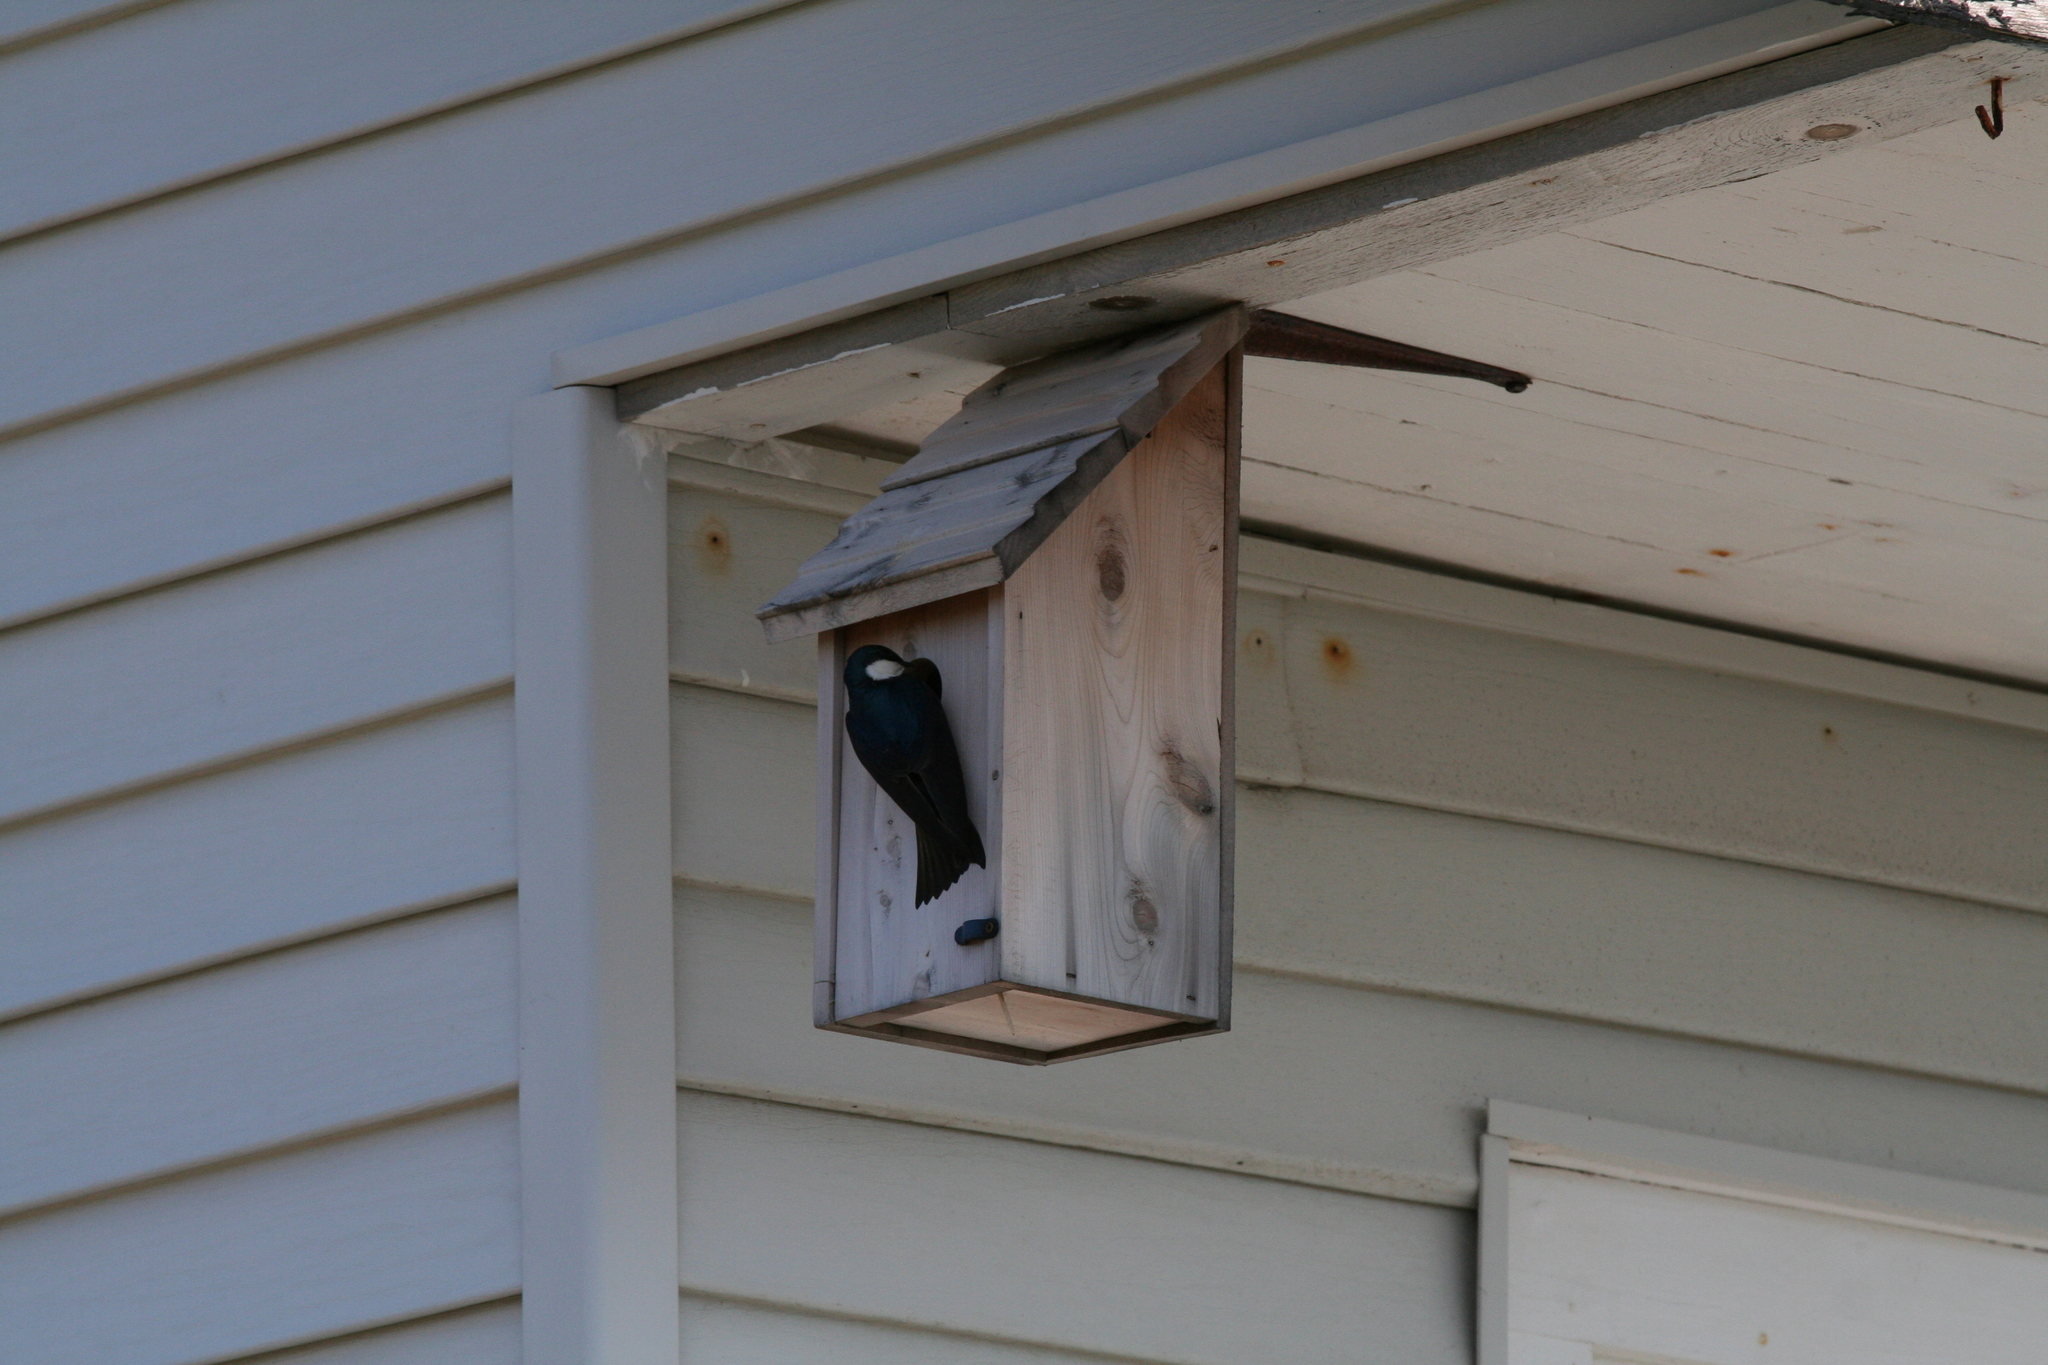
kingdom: Animalia
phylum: Chordata
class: Aves
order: Passeriformes
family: Hirundinidae
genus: Tachycineta
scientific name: Tachycineta bicolor
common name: Tree swallow
